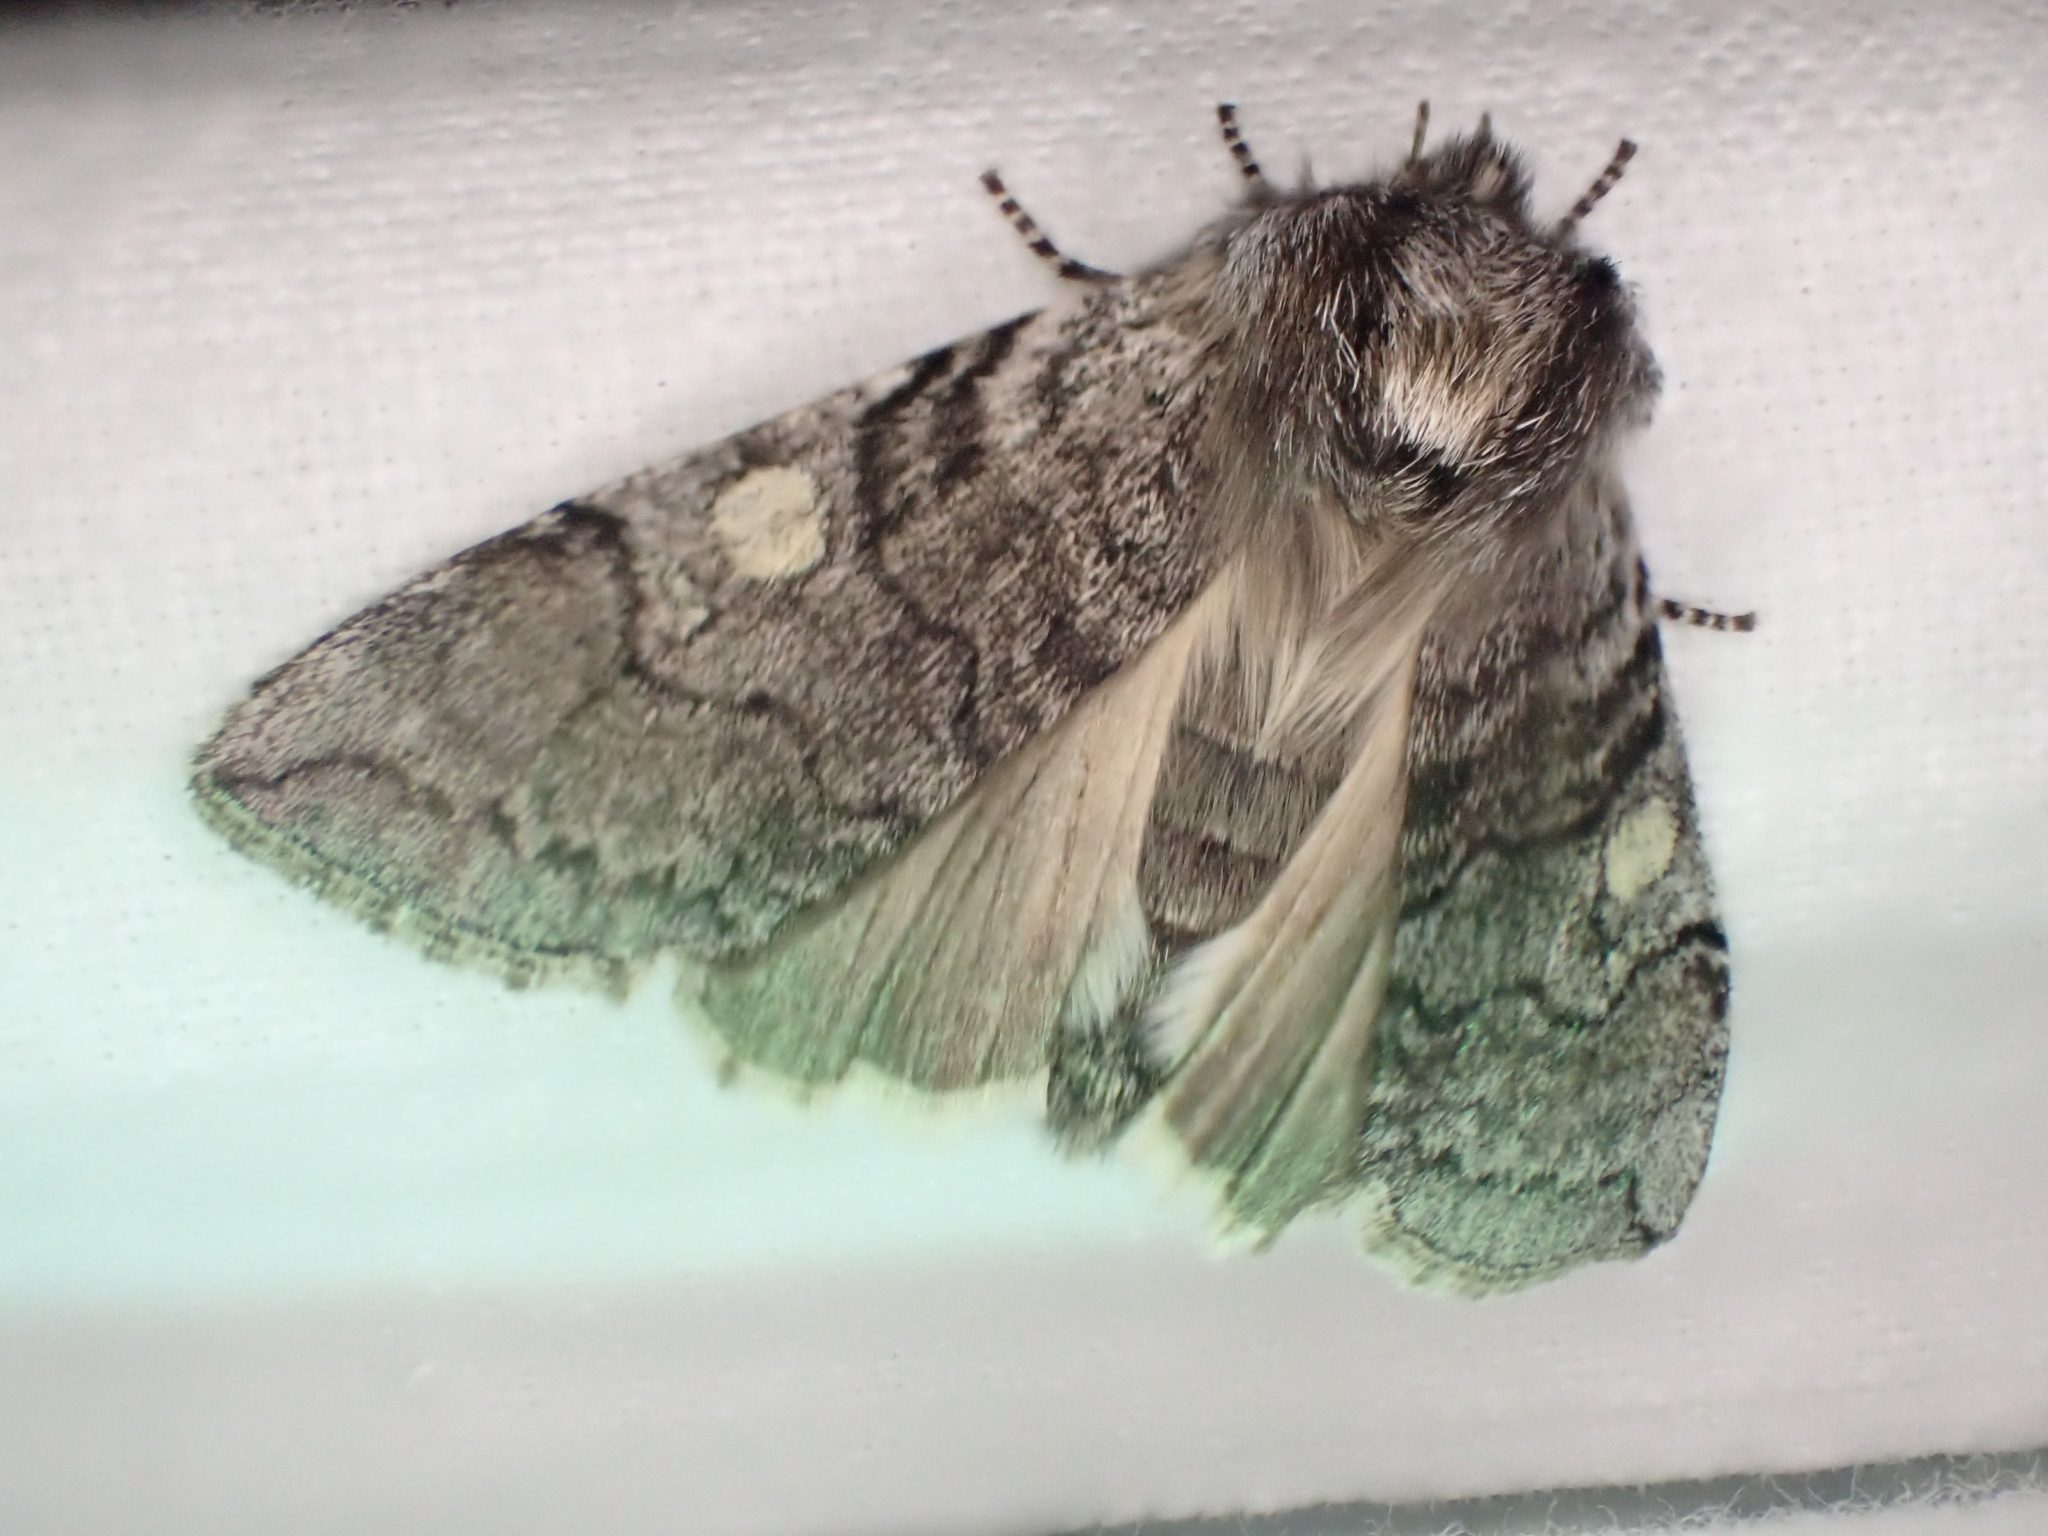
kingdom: Animalia
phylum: Arthropoda
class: Insecta
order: Lepidoptera
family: Drepanidae
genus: Achlya
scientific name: Achlya flavicornis
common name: Yellow horned
